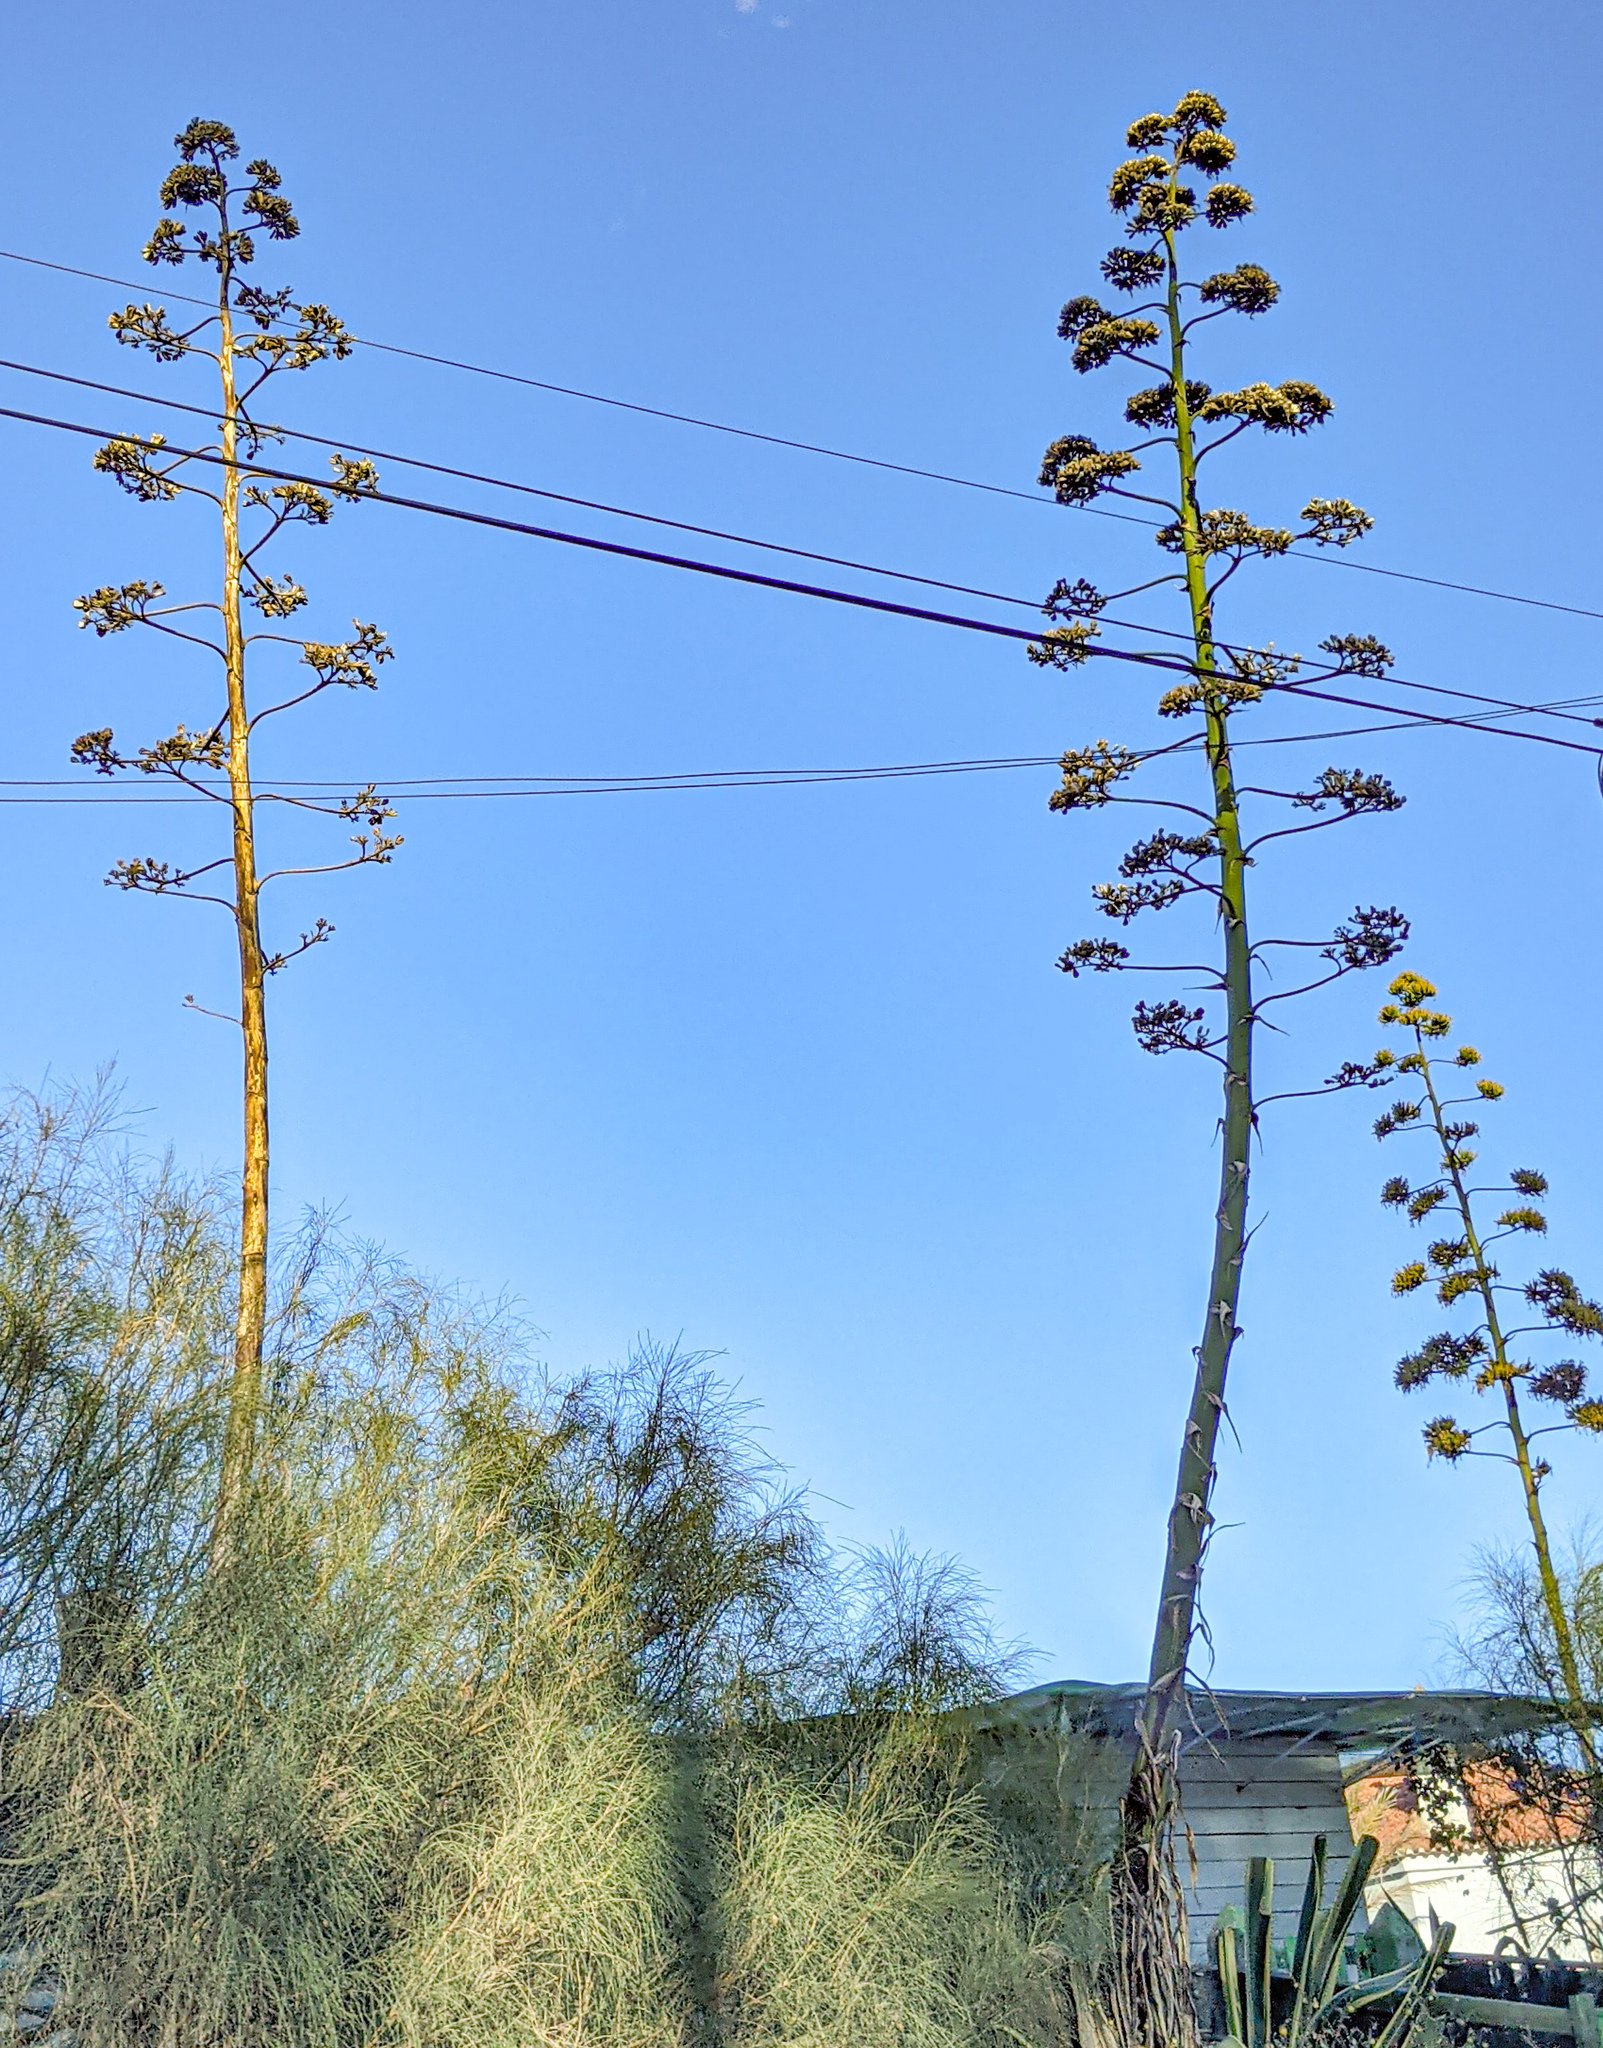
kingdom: Plantae
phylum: Tracheophyta
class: Liliopsida
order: Asparagales
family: Asparagaceae
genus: Agave
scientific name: Agave americana
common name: Centuryplant
